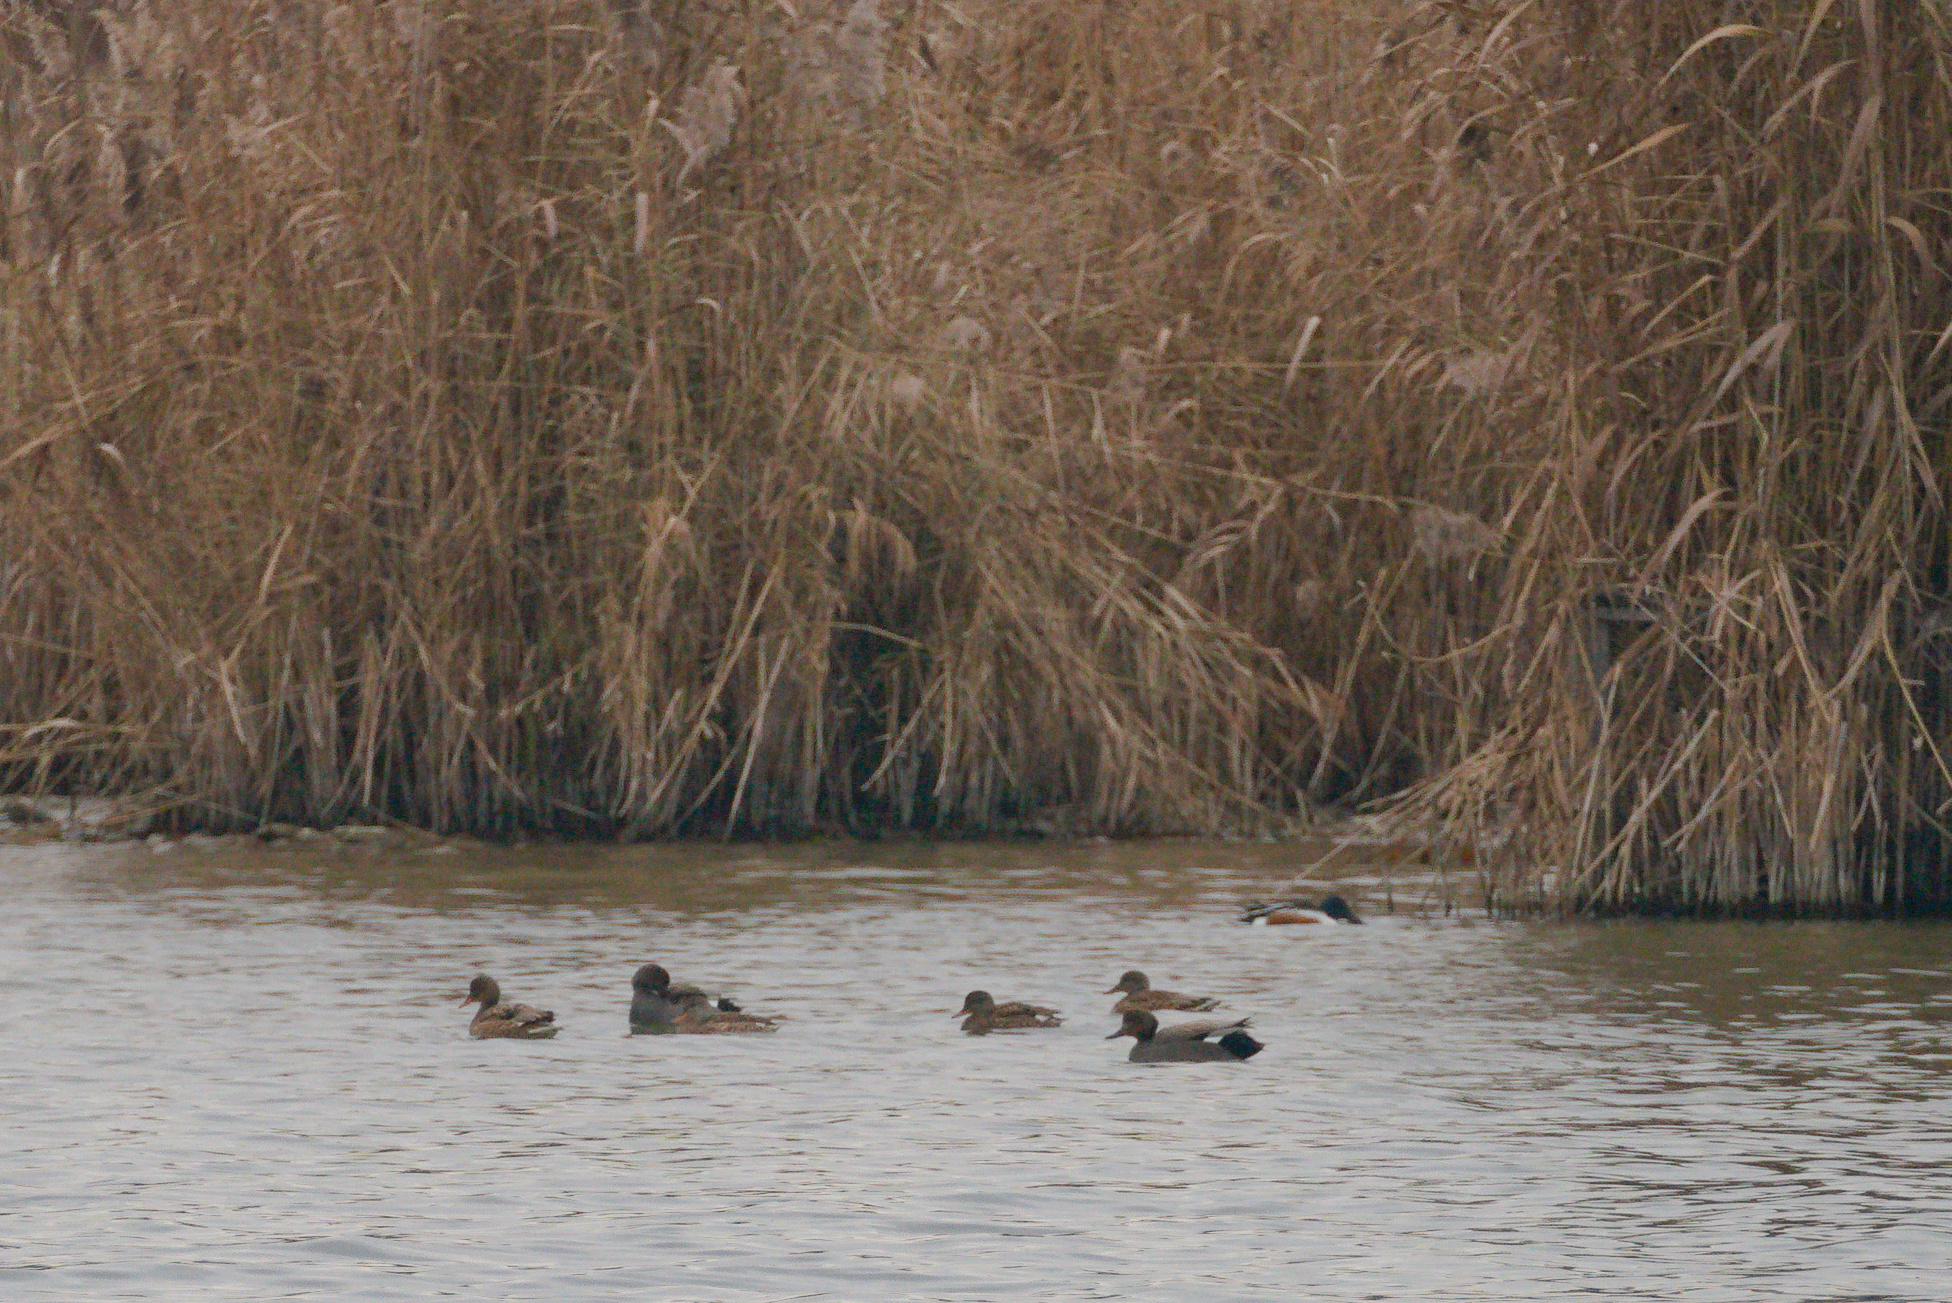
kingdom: Animalia
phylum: Chordata
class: Aves
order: Anseriformes
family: Anatidae
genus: Mareca
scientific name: Mareca strepera
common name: Gadwall
